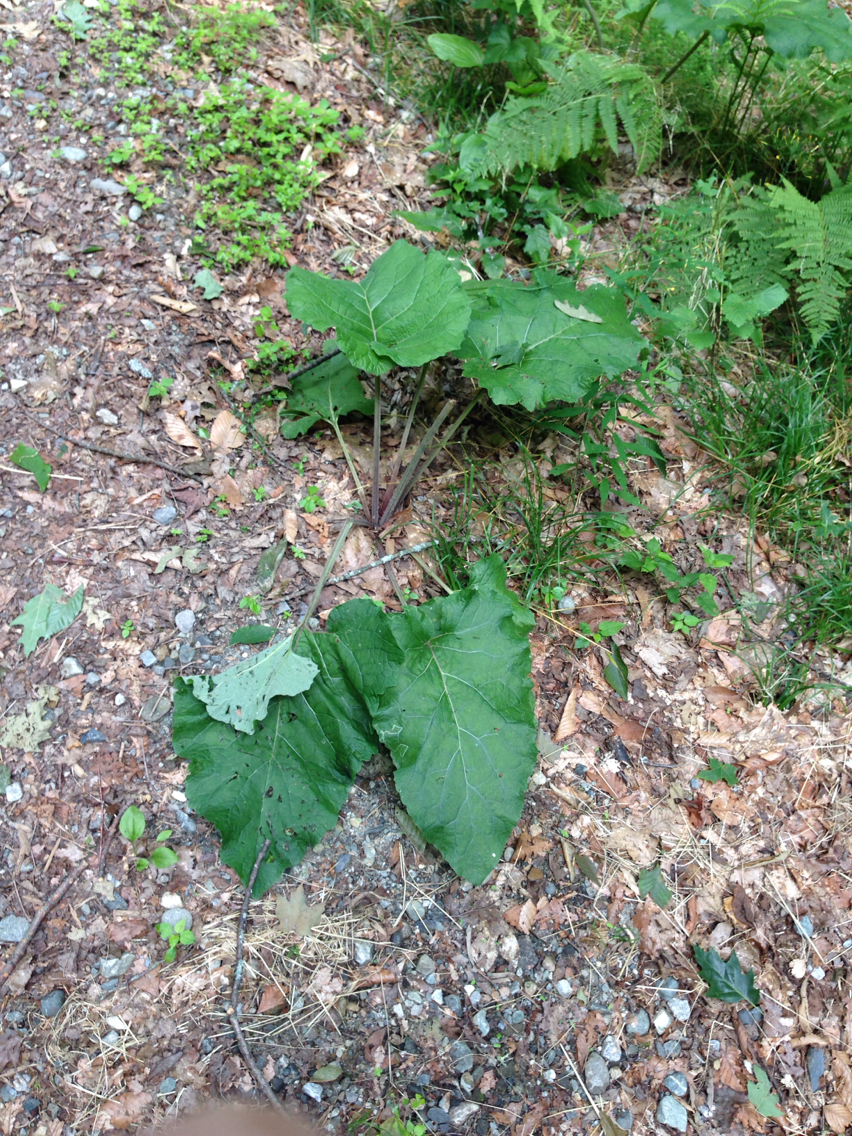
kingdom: Plantae
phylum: Tracheophyta
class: Magnoliopsida
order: Asterales
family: Asteraceae
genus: Arctium
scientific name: Arctium lappa
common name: Greater burdock
